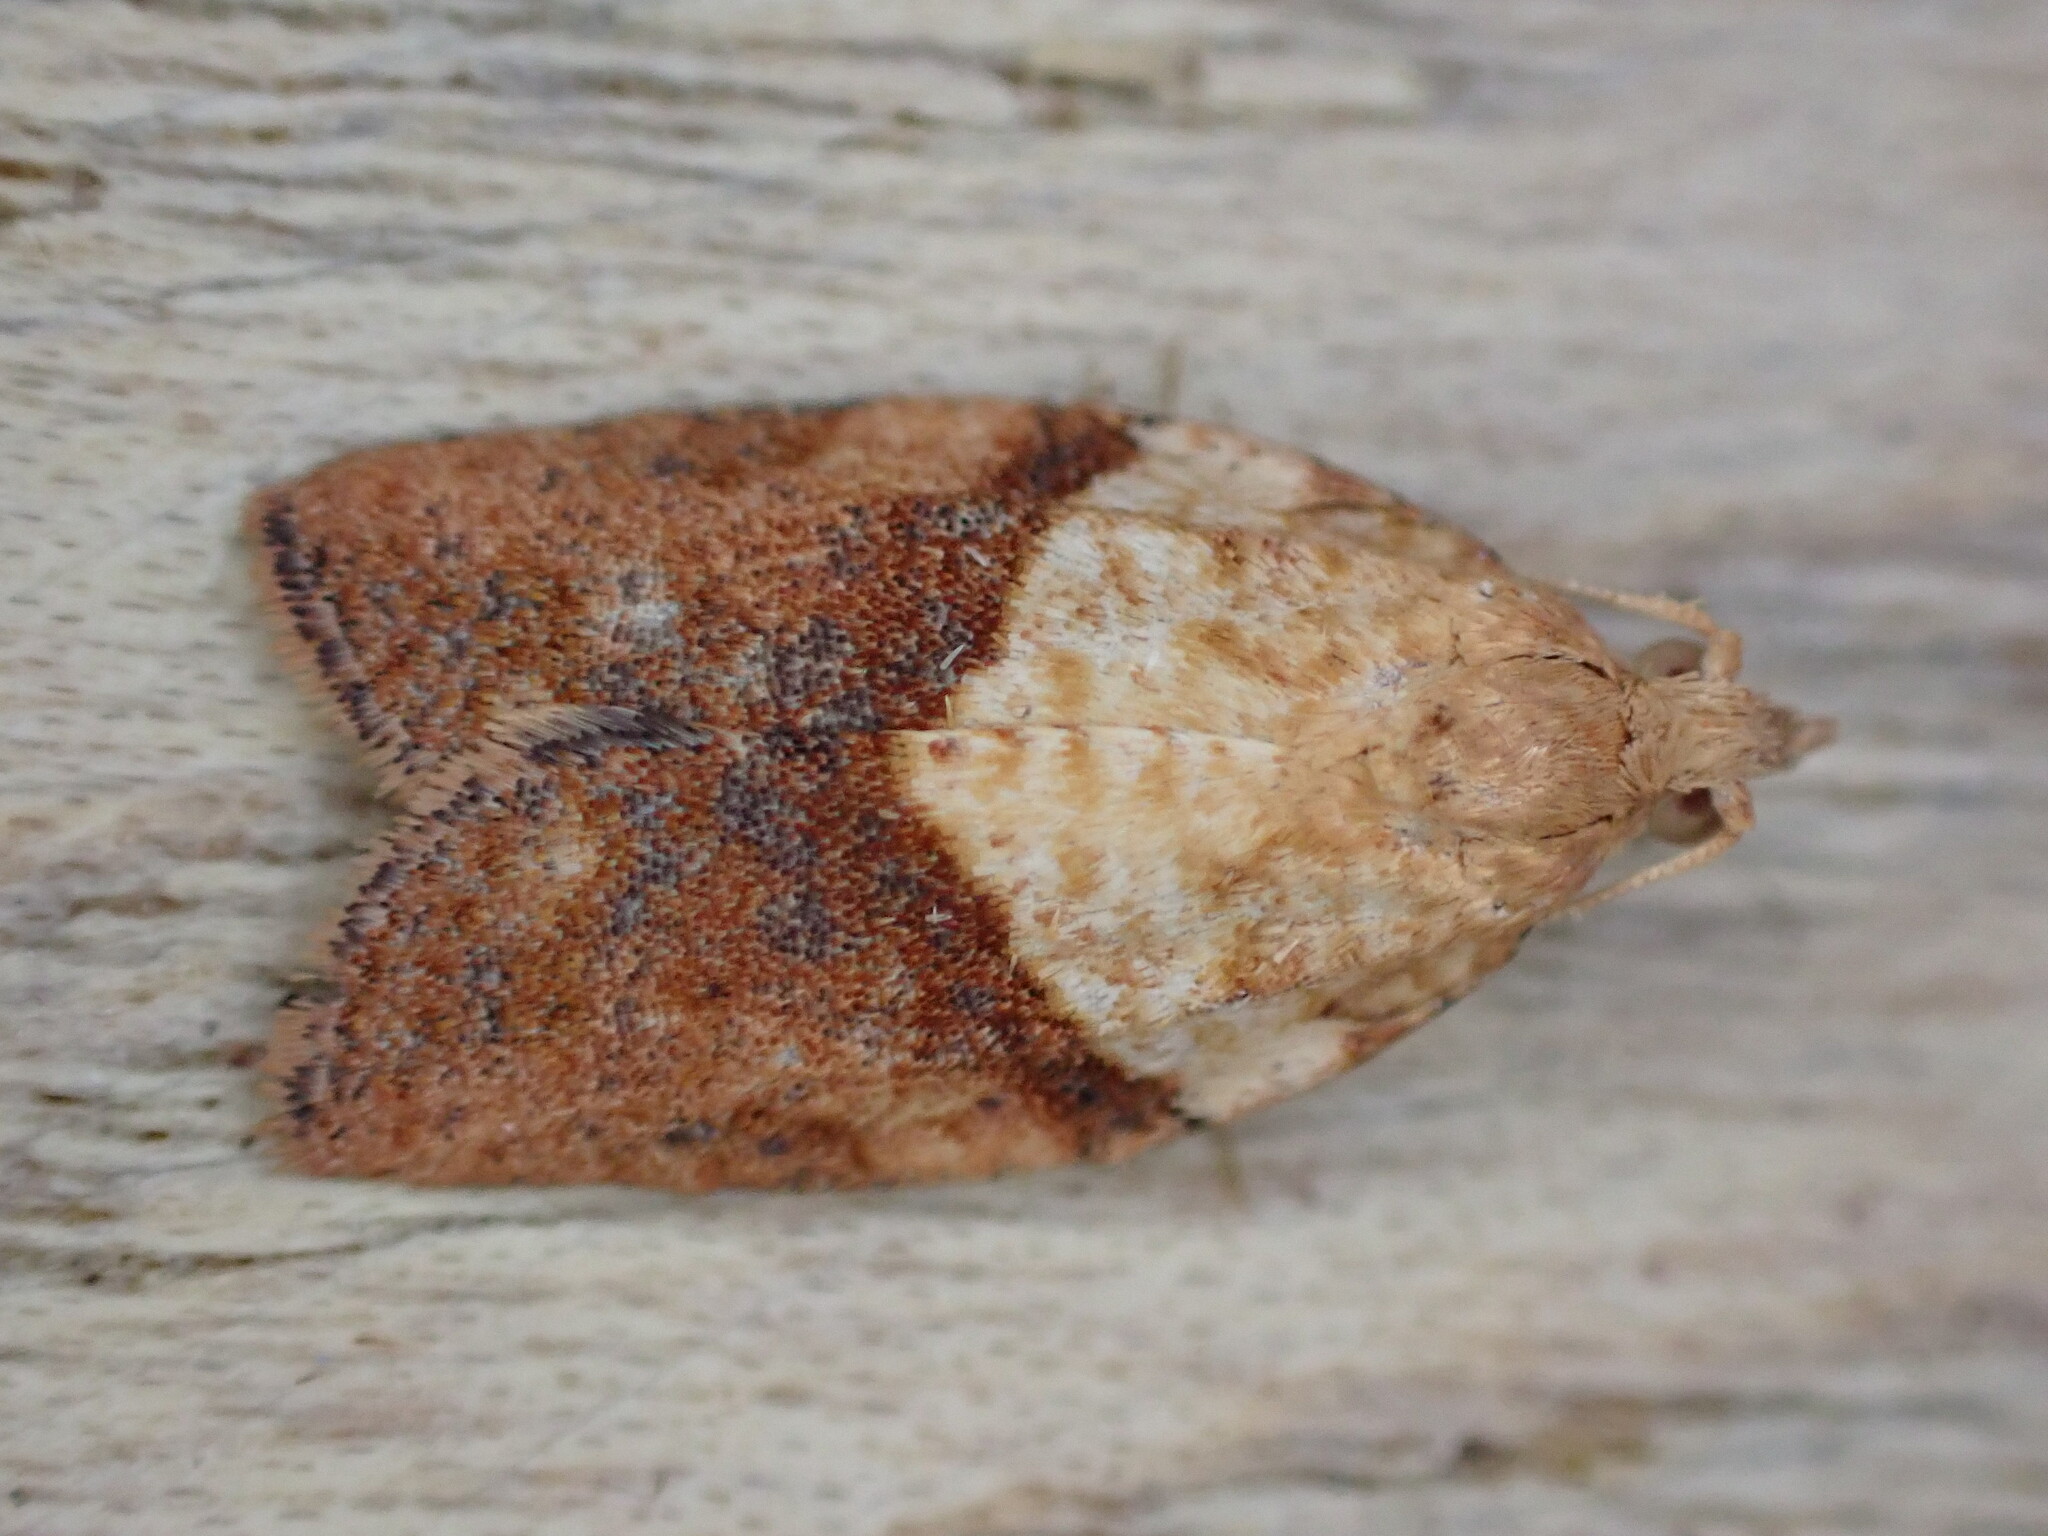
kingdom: Animalia
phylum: Arthropoda
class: Insecta
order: Lepidoptera
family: Tortricidae
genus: Epiphyas
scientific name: Epiphyas postvittana
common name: Light brown apple moth
